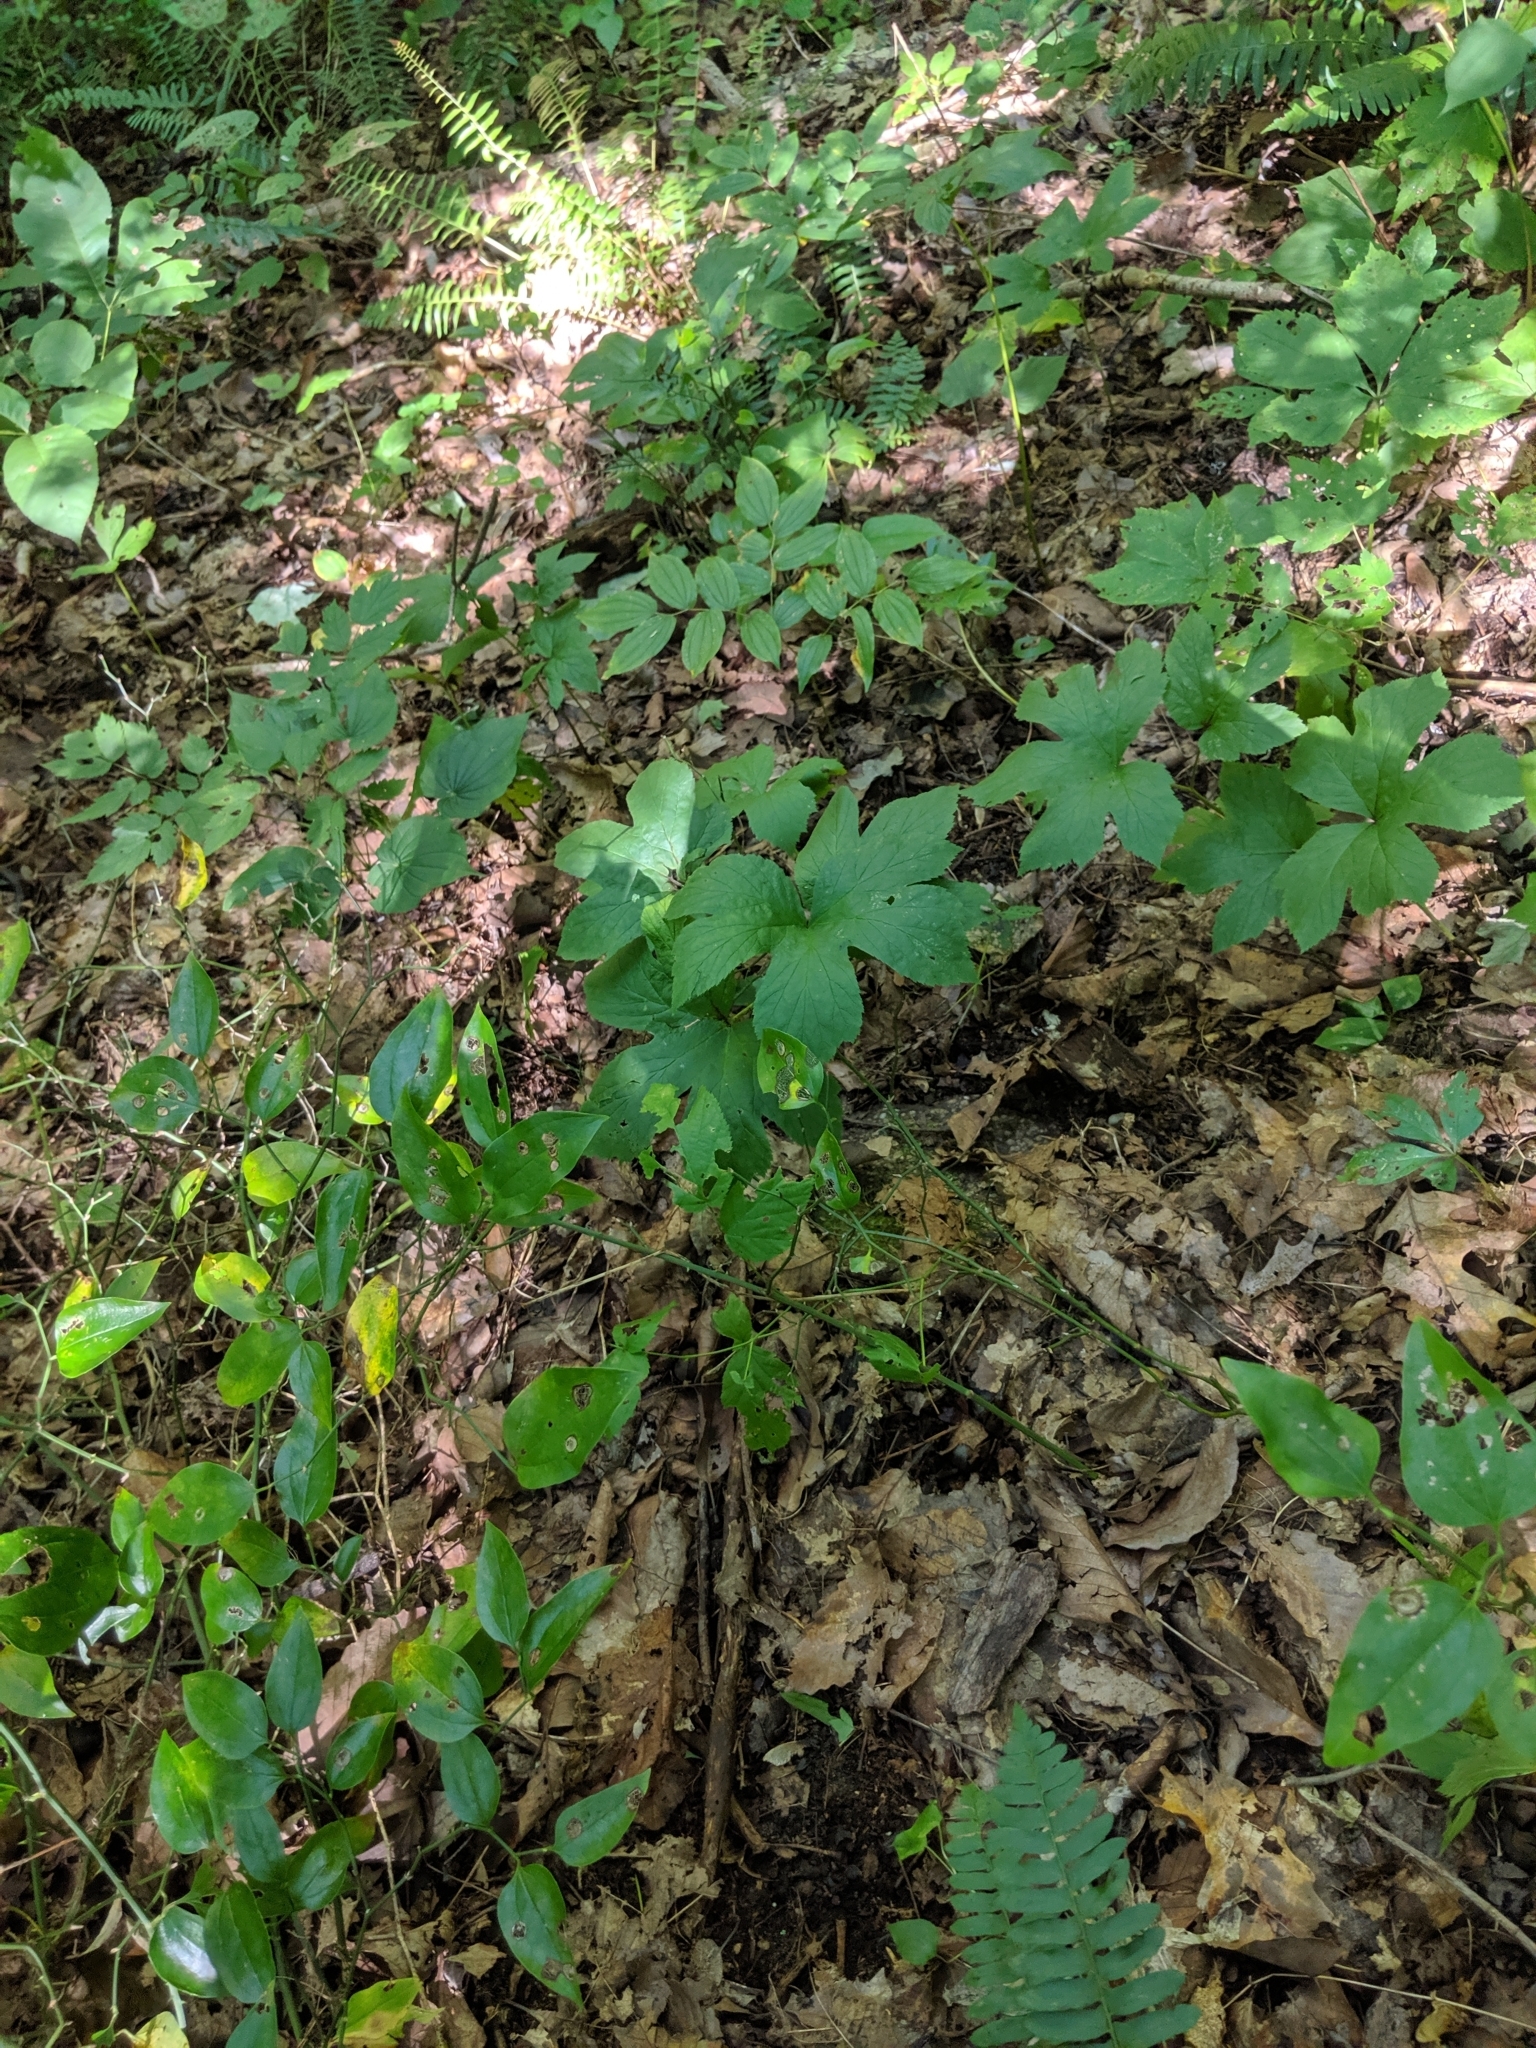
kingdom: Plantae
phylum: Tracheophyta
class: Magnoliopsida
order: Ranunculales
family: Ranunculaceae
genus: Hydrastis
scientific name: Hydrastis canadensis
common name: Goldenseal
